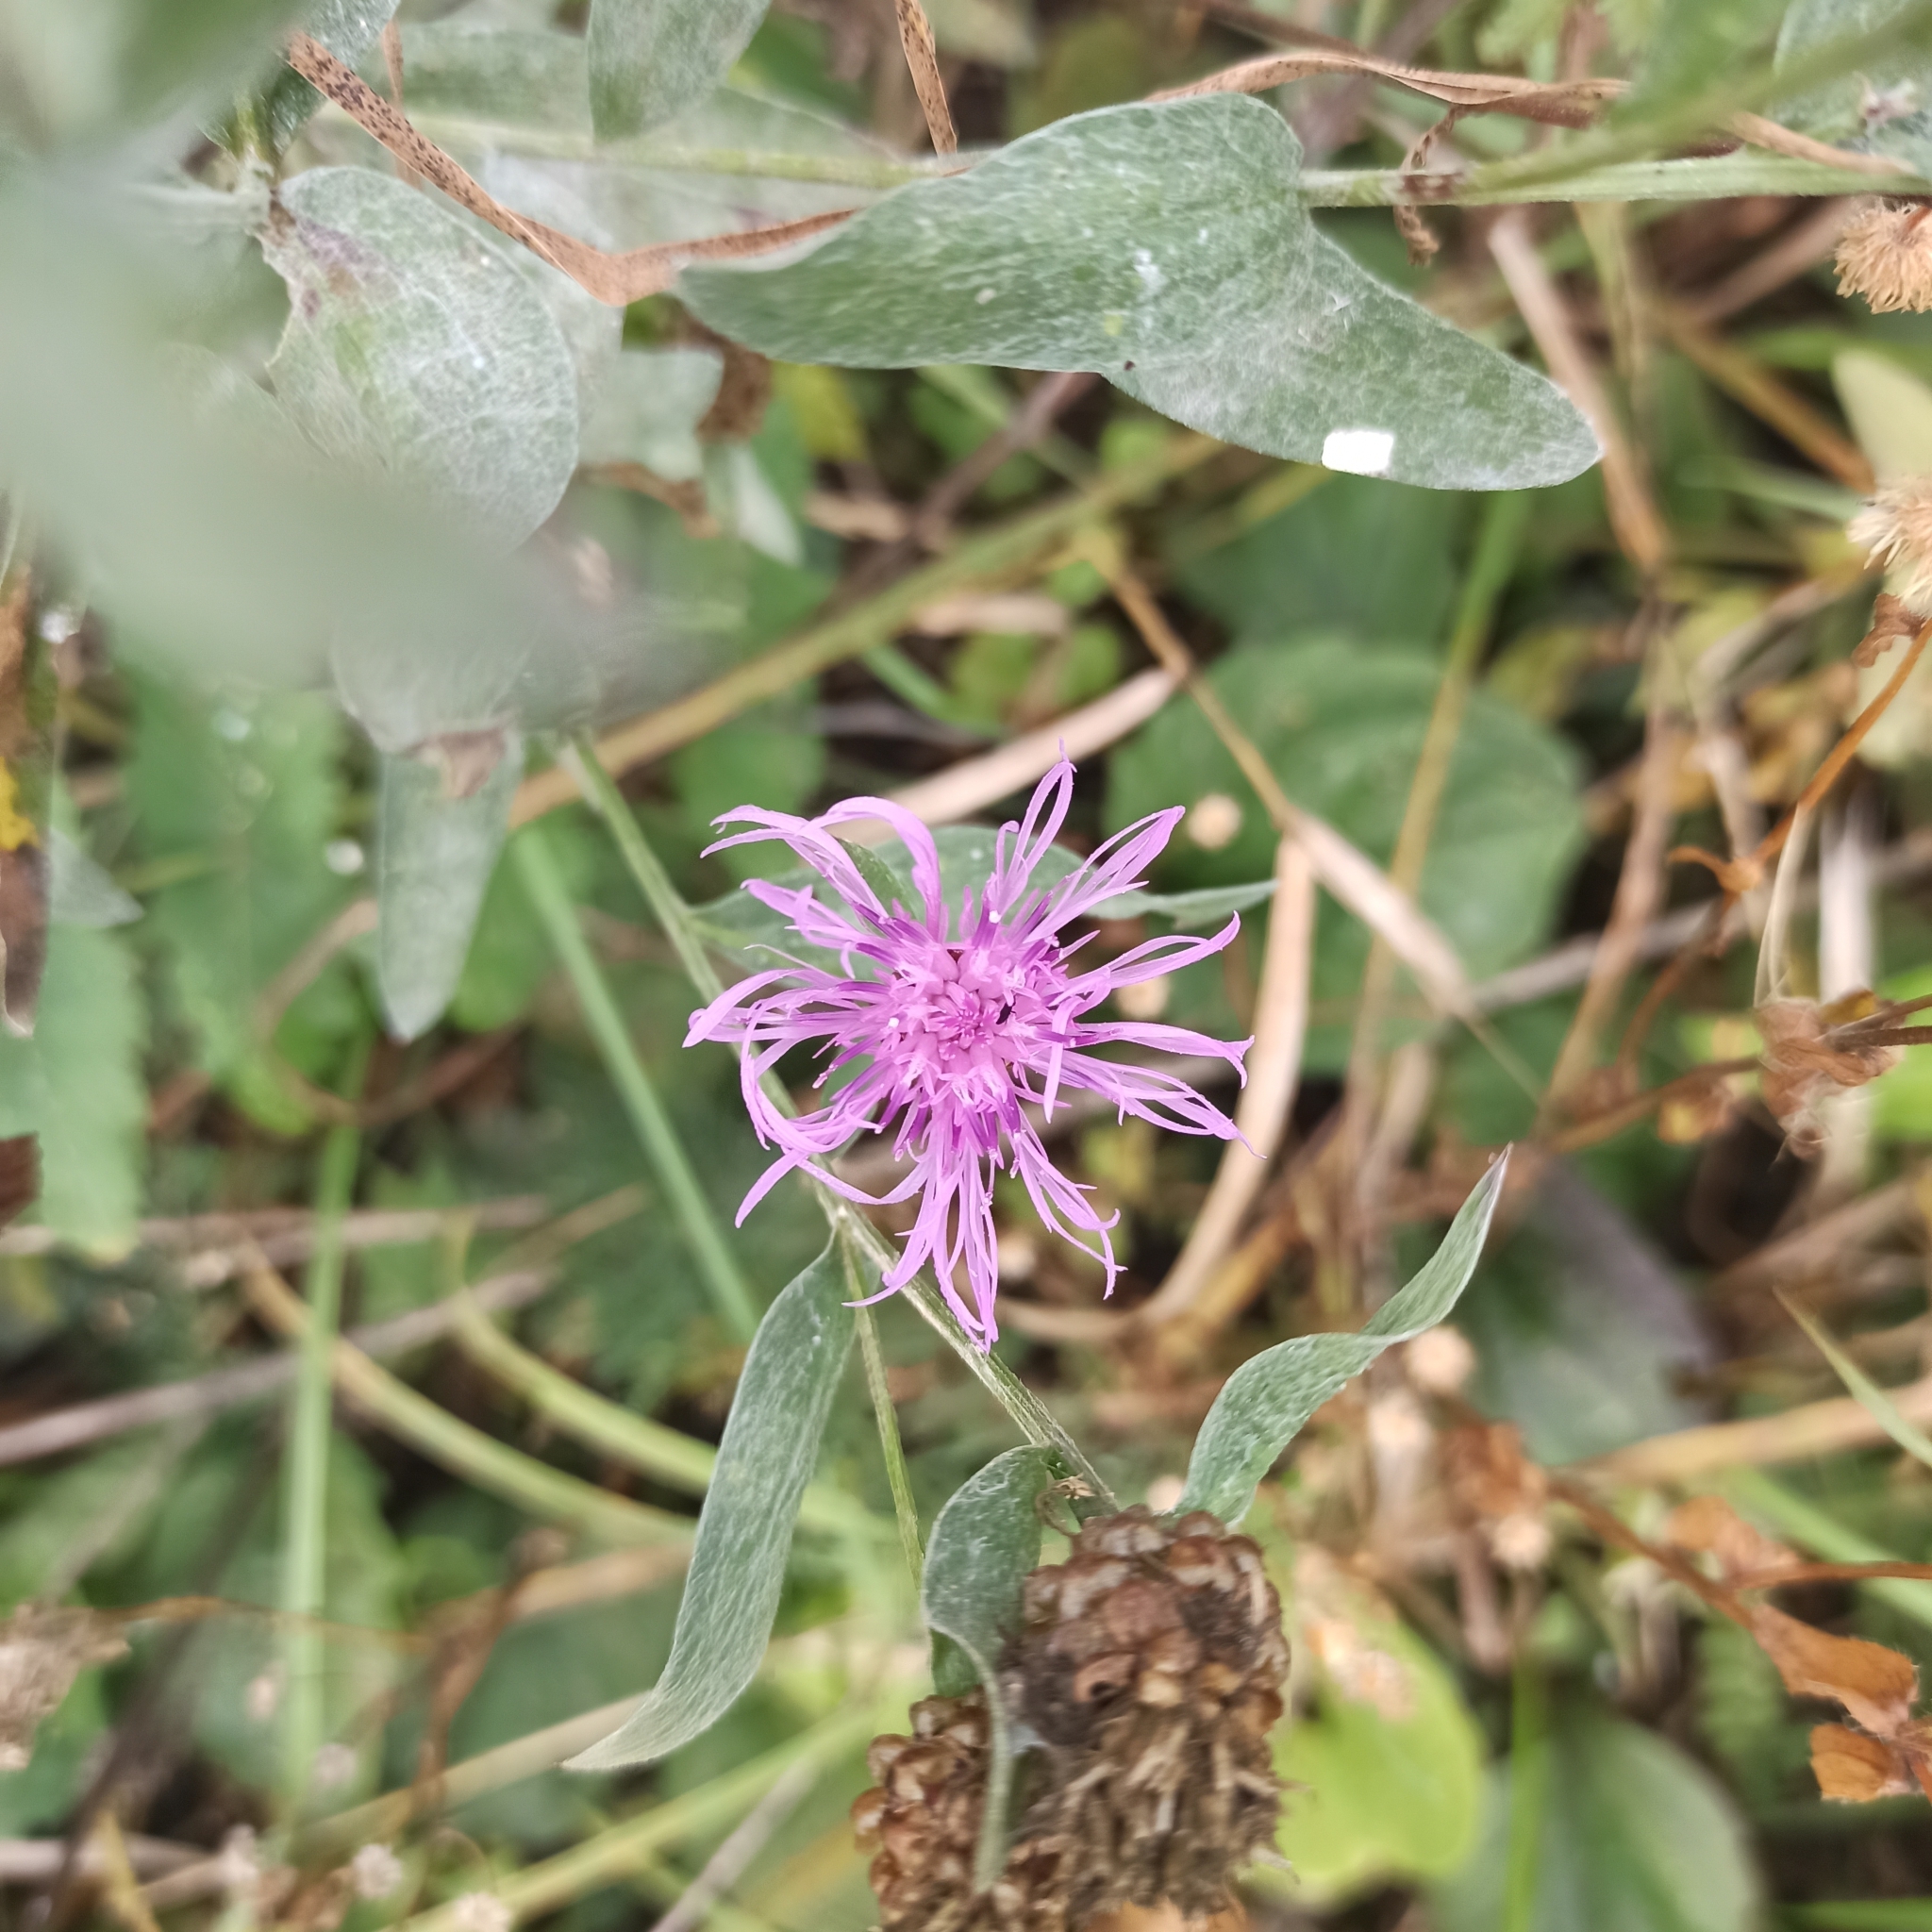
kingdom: Plantae
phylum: Tracheophyta
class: Magnoliopsida
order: Asterales
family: Asteraceae
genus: Centaurea
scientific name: Centaurea jacea
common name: Brown knapweed
